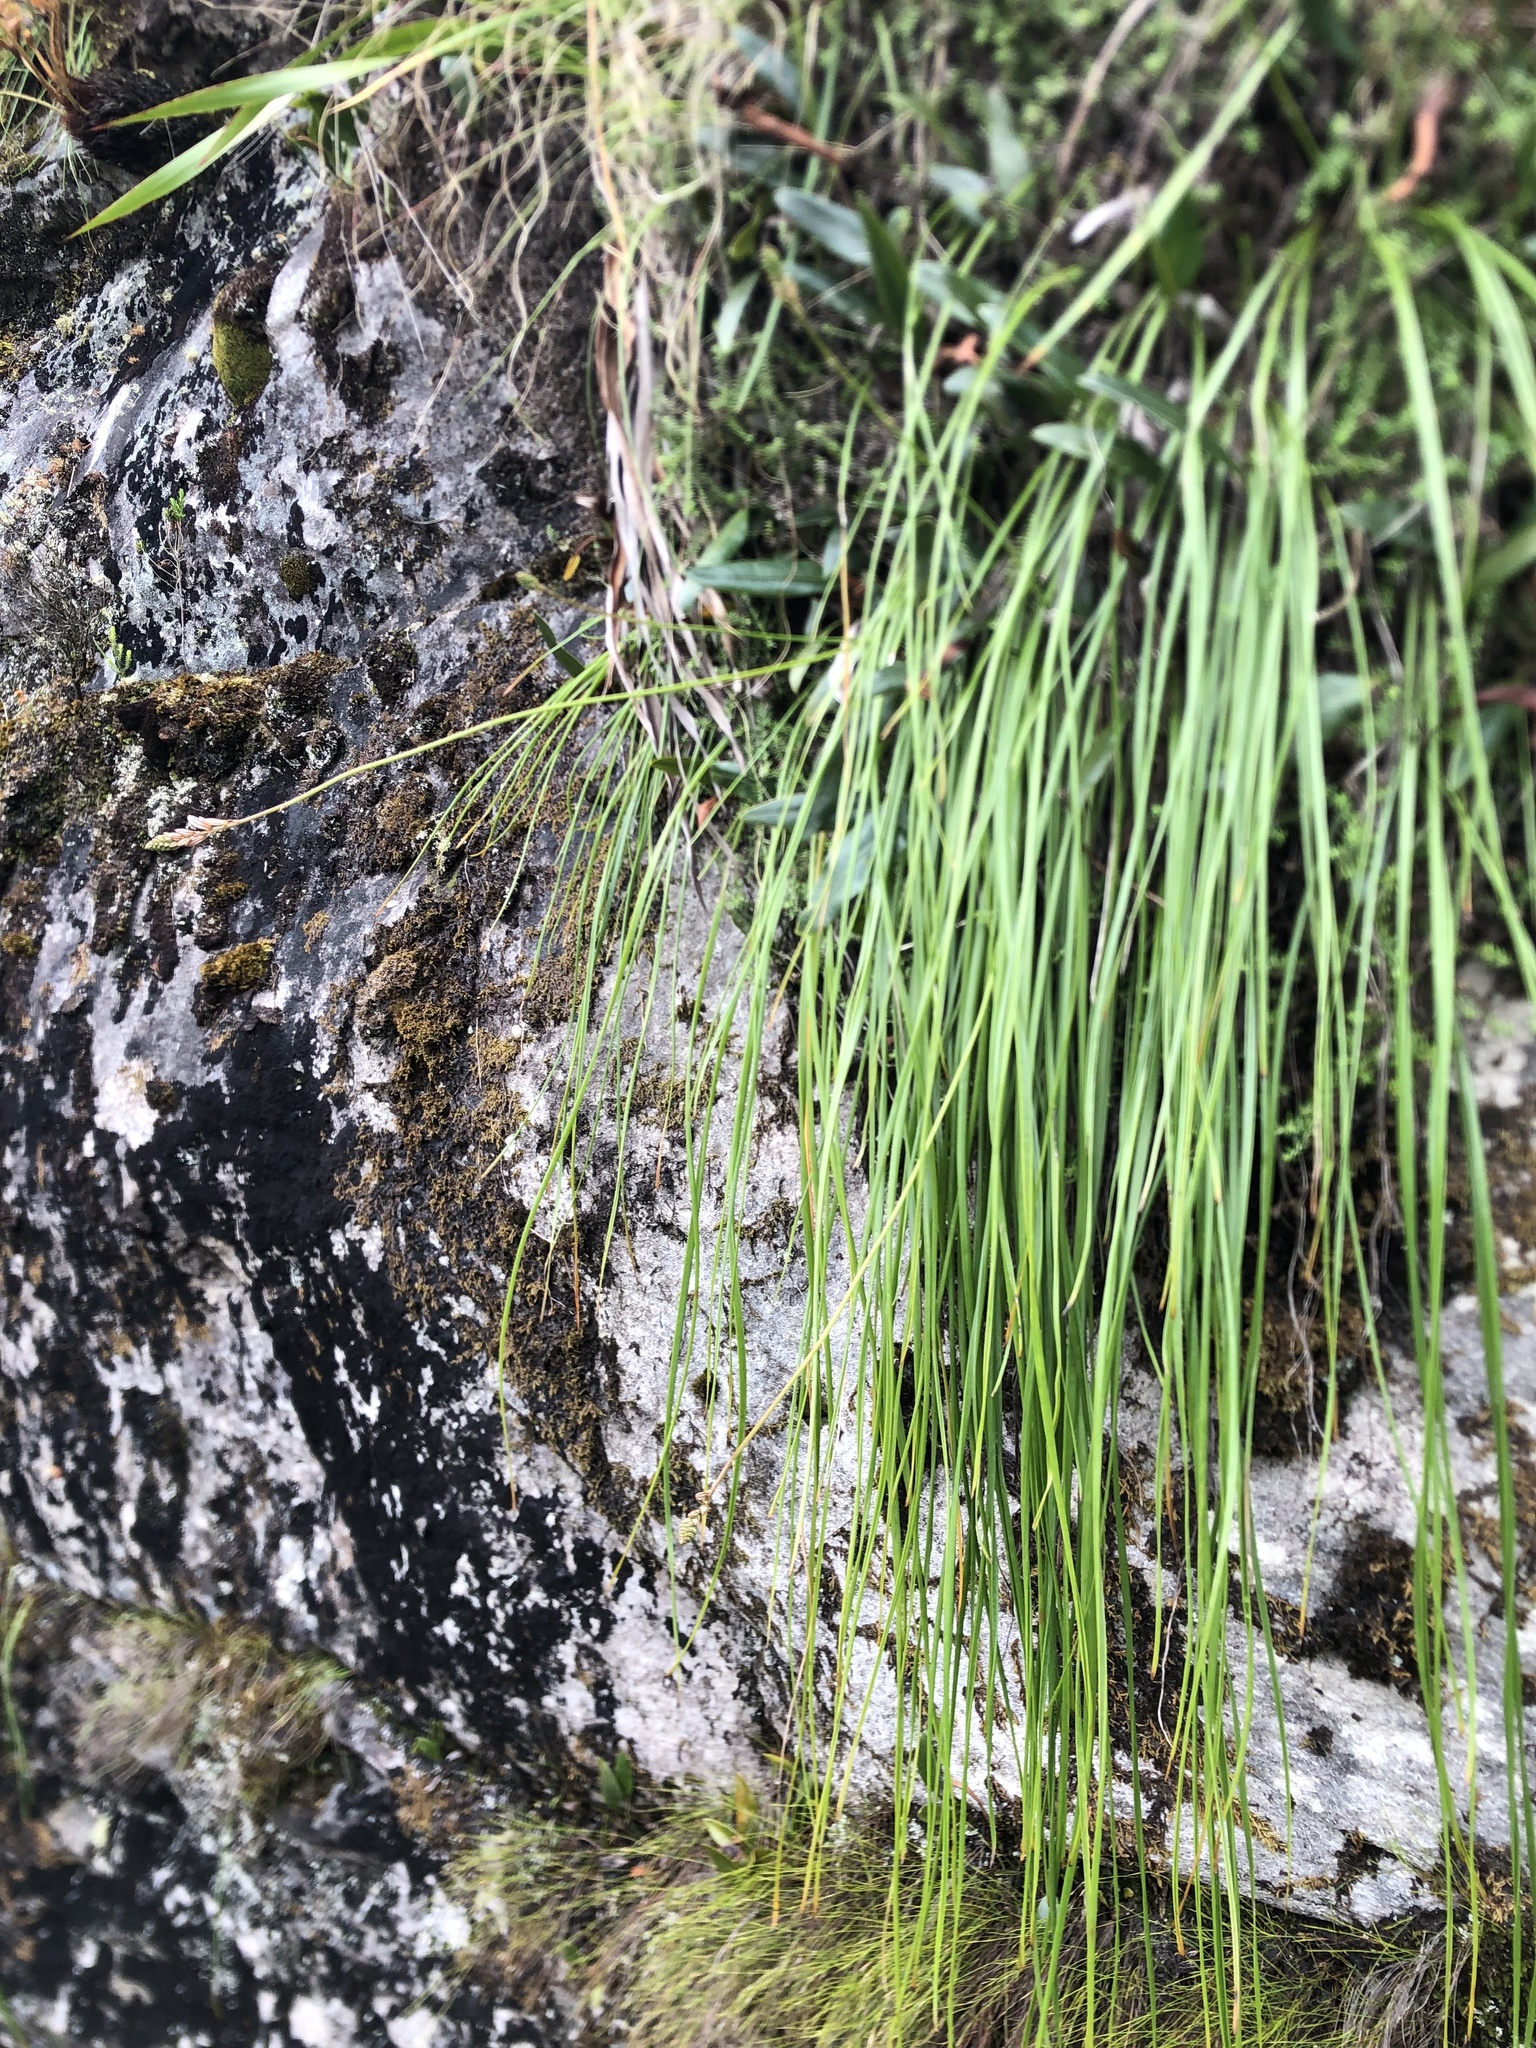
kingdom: Plantae
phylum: Tracheophyta
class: Liliopsida
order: Asparagales
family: Asphodelaceae
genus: Trachyandra
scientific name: Trachyandra tabularis
